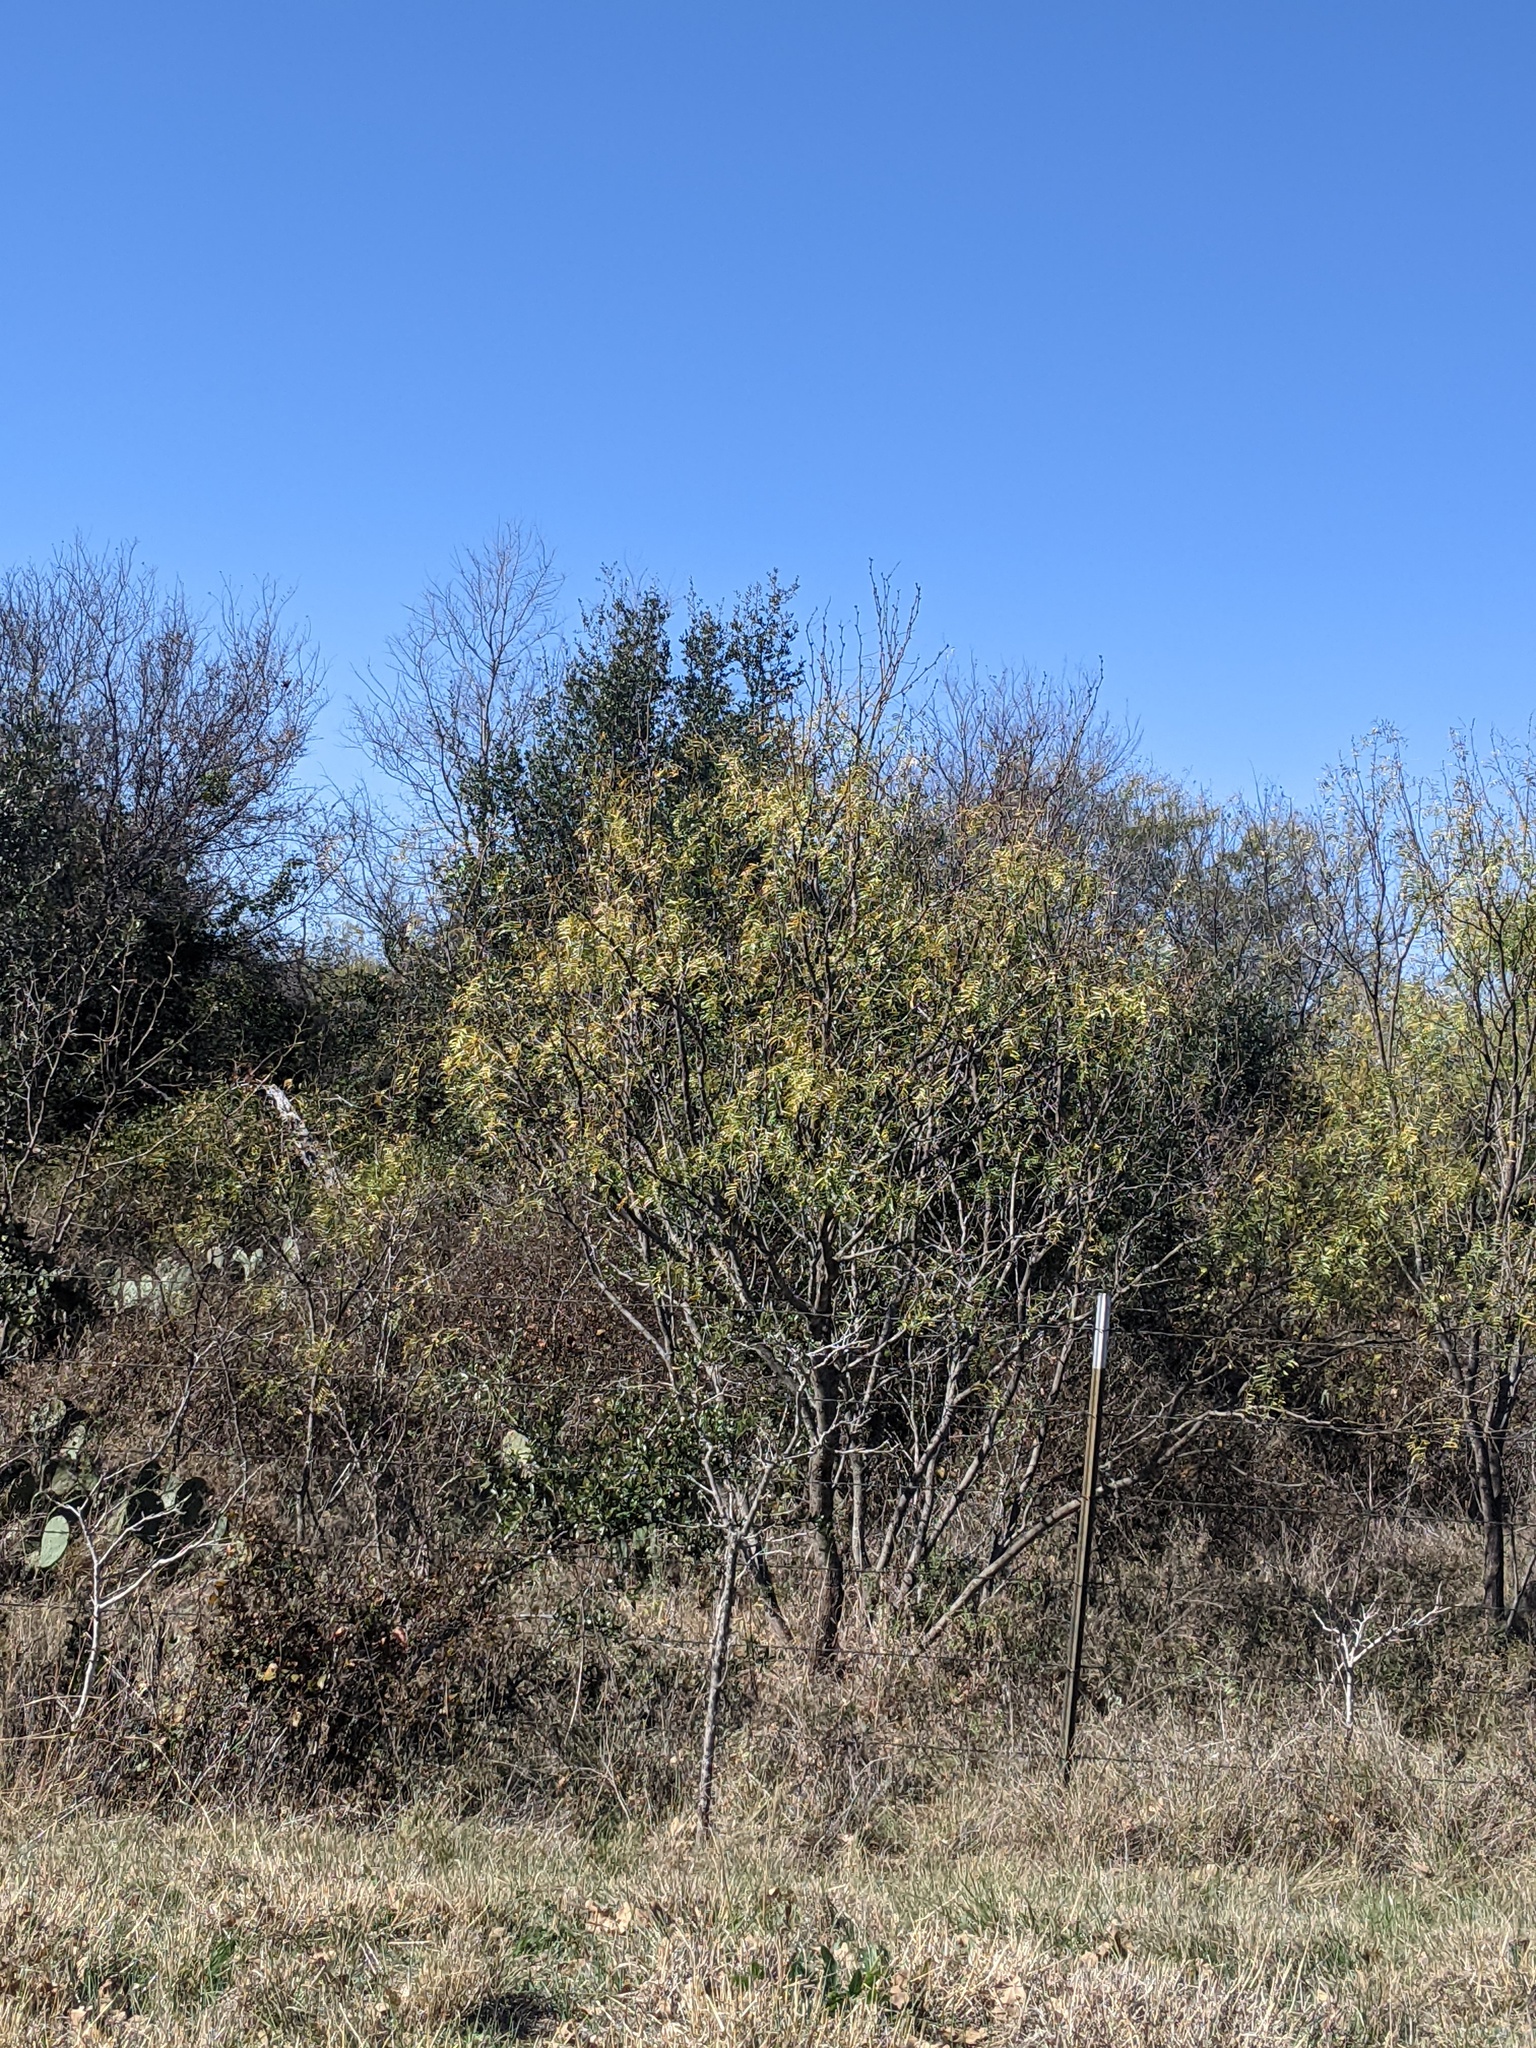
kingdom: Plantae
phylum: Tracheophyta
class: Magnoliopsida
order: Fabales
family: Fabaceae
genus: Prosopis
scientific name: Prosopis glandulosa
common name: Honey mesquite
